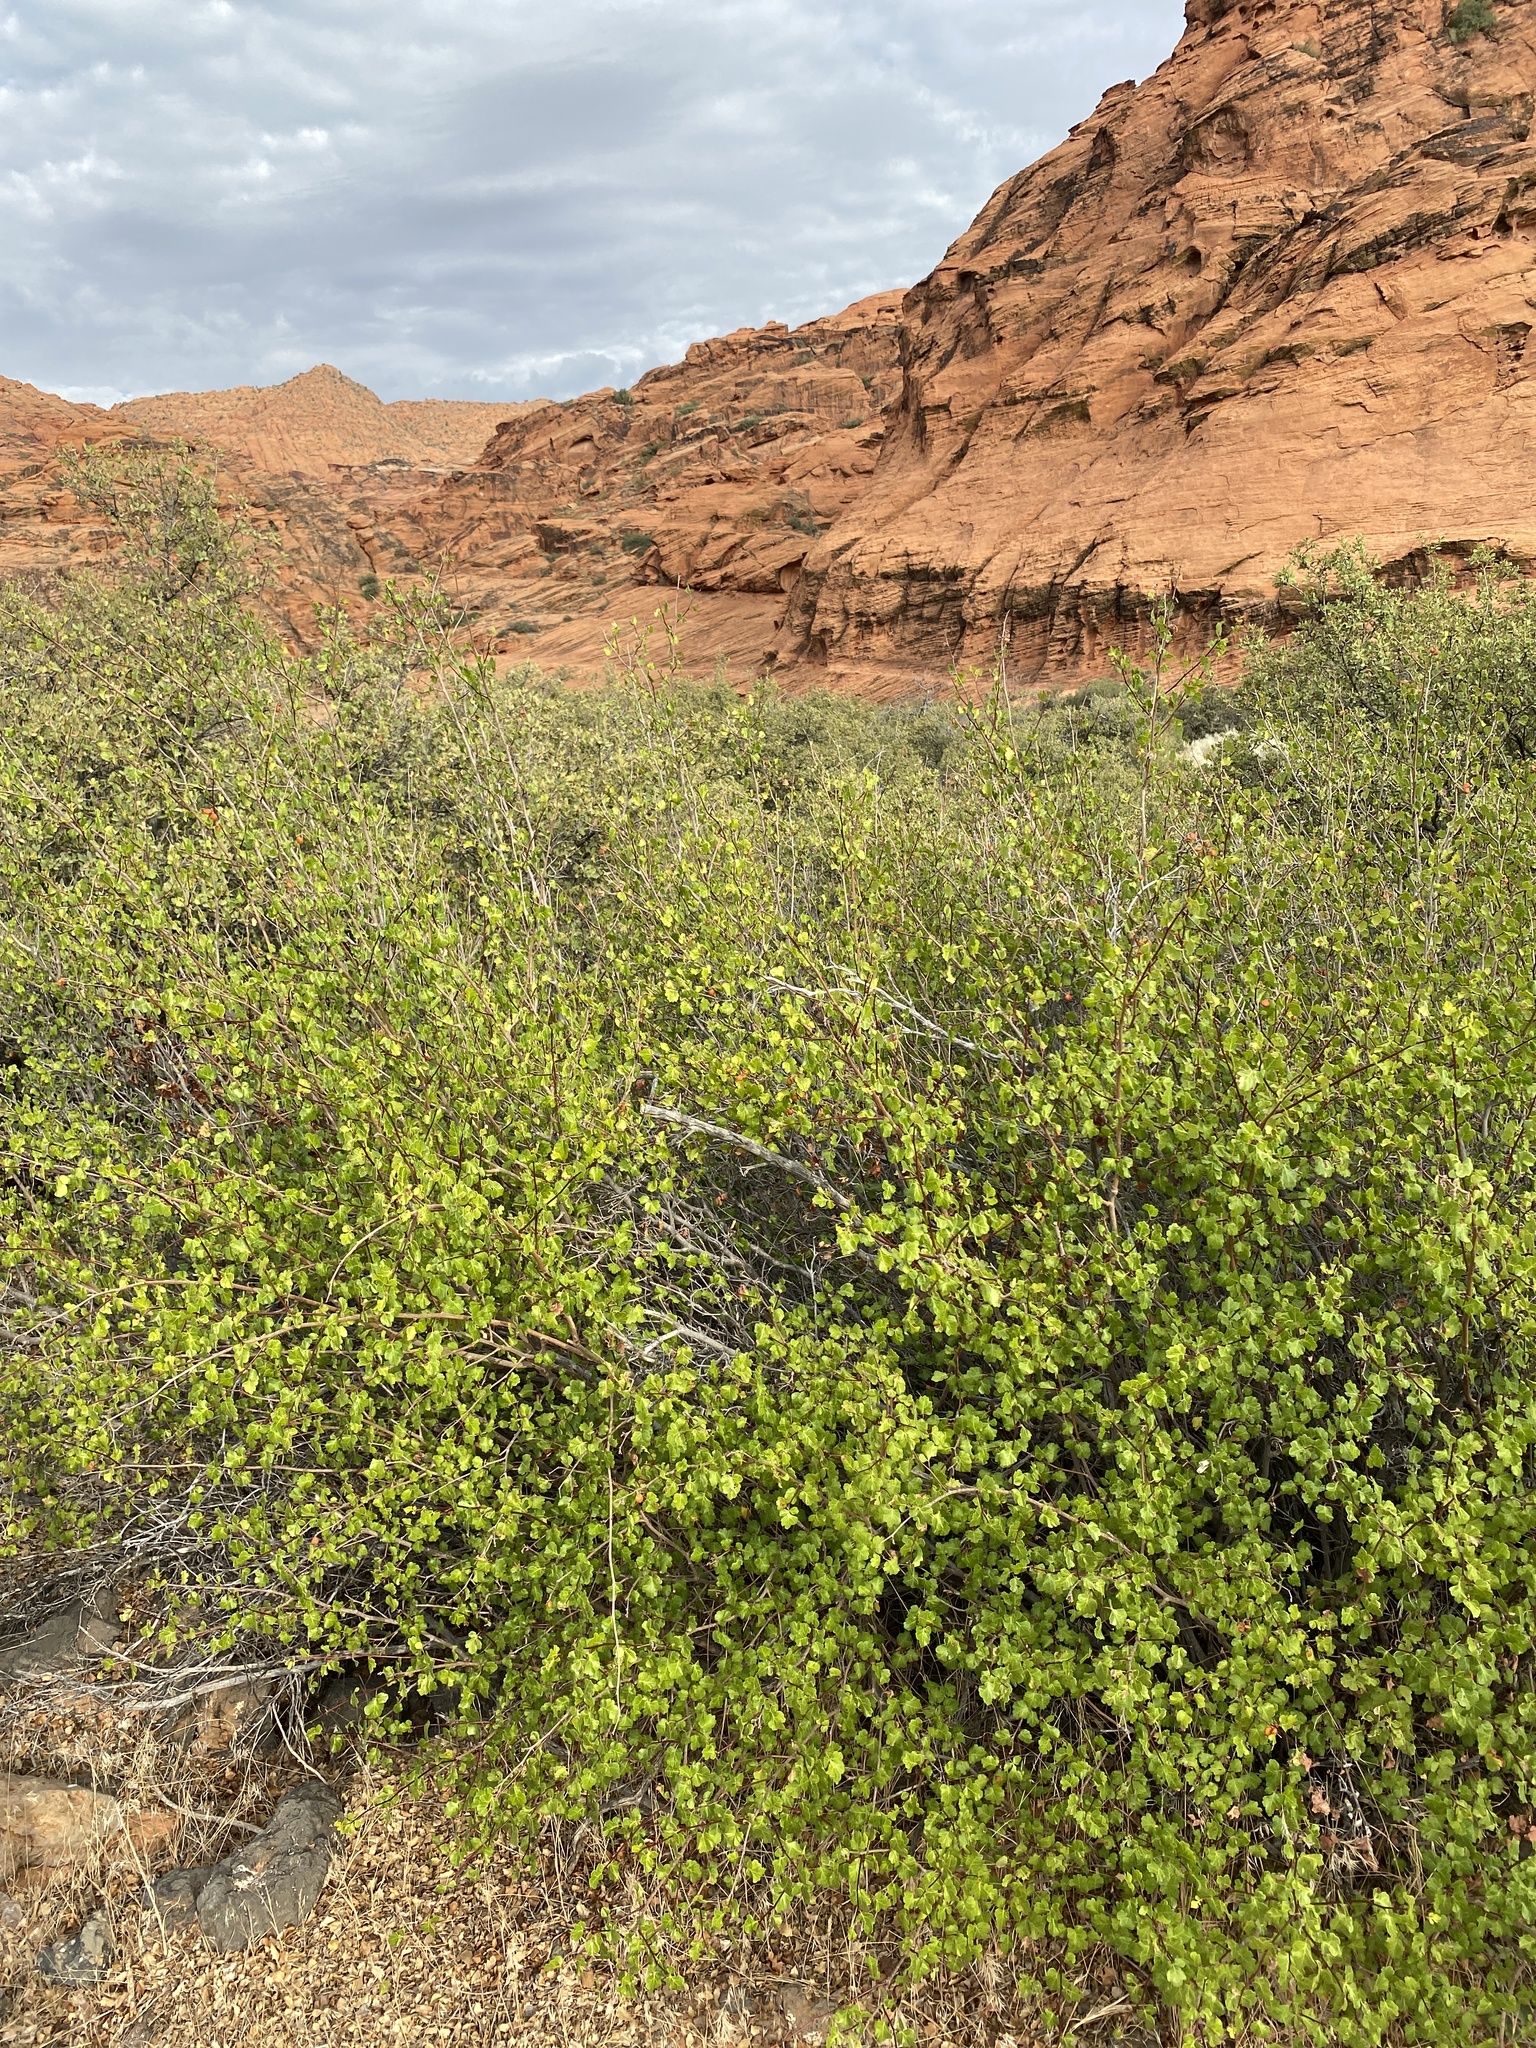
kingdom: Plantae
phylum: Tracheophyta
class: Magnoliopsida
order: Sapindales
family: Anacardiaceae
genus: Rhus
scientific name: Rhus trilobata
